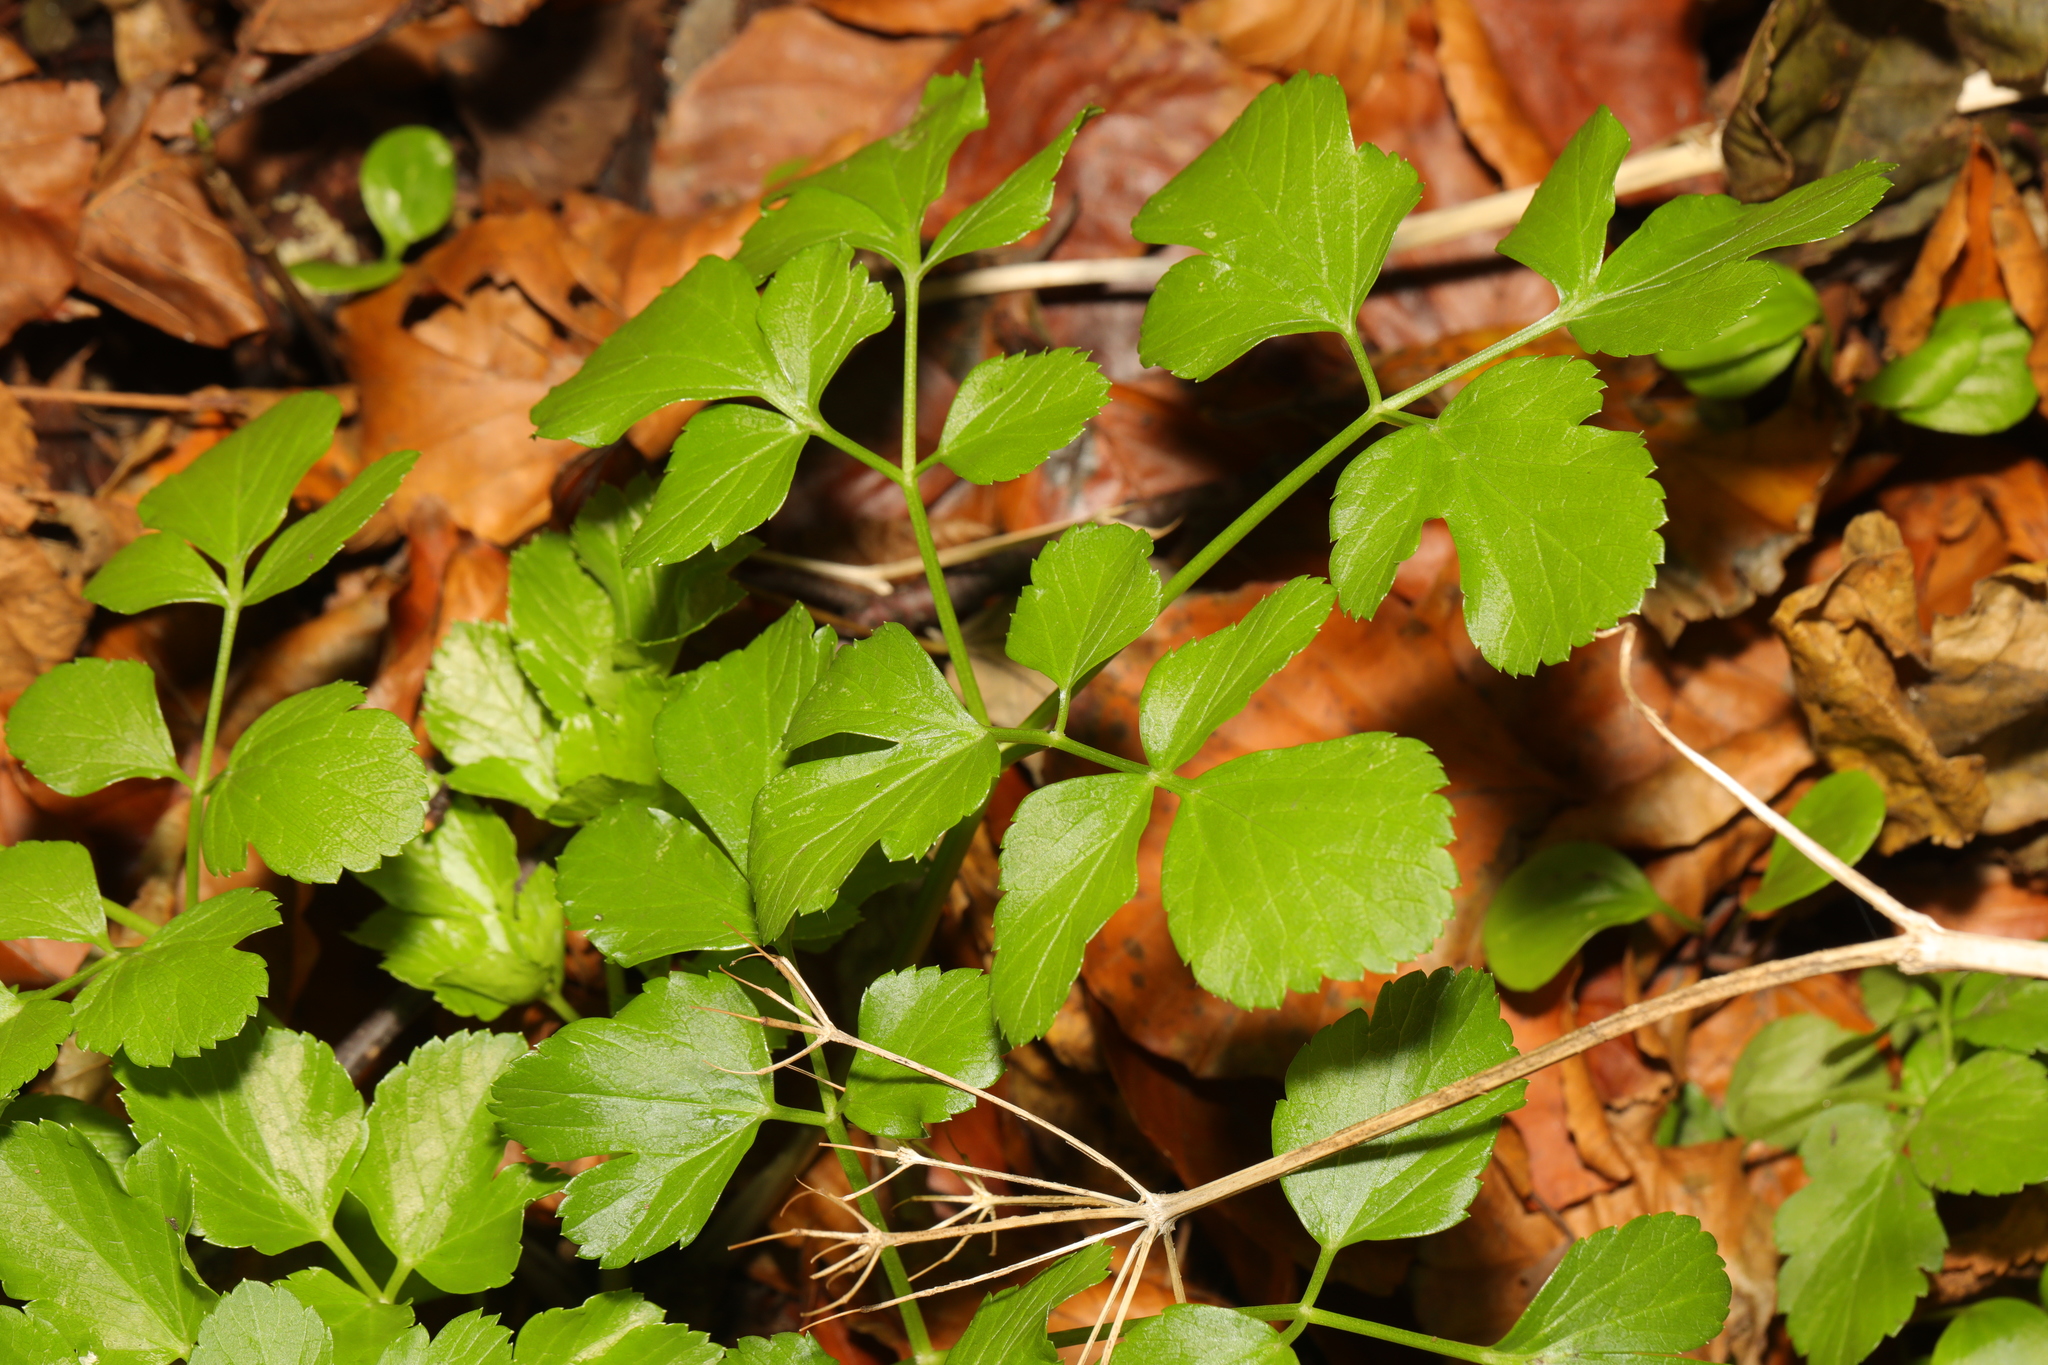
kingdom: Plantae
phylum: Tracheophyta
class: Magnoliopsida
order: Apiales
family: Apiaceae
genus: Smyrnium
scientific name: Smyrnium olusatrum
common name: Alexanders
